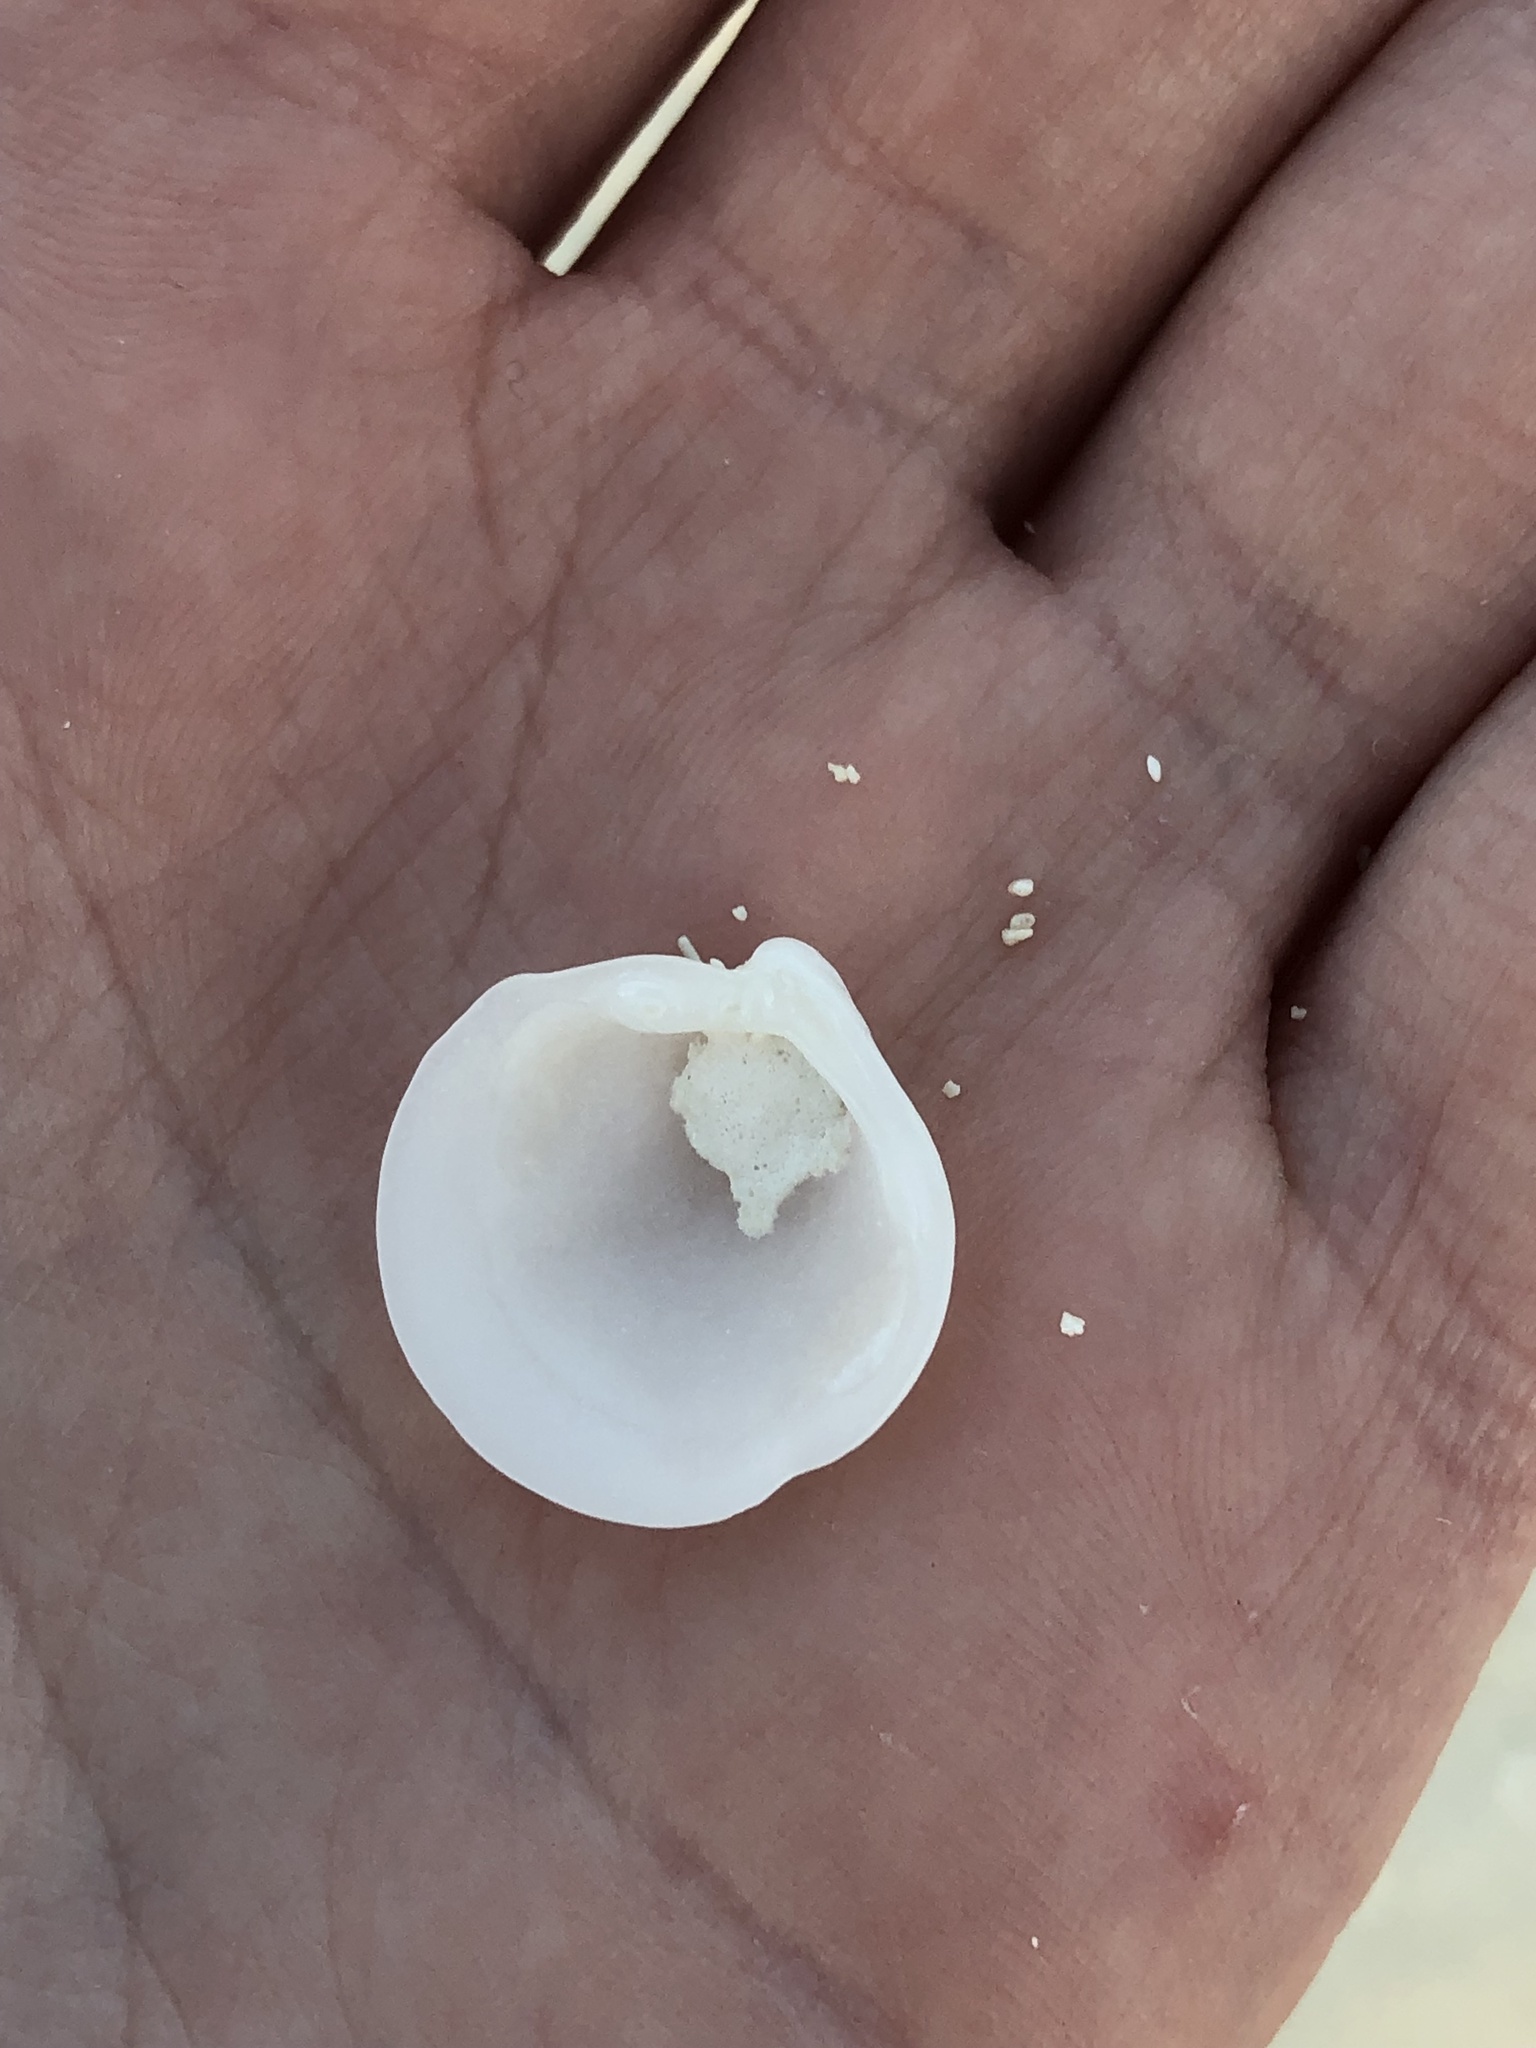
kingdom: Animalia
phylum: Mollusca
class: Bivalvia
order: Lucinida
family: Lucinidae
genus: Lucina
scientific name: Lucina pensylvanica
